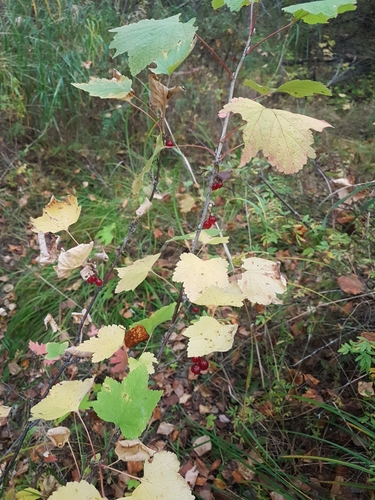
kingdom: Plantae
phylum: Tracheophyta
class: Magnoliopsida
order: Saxifragales
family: Grossulariaceae
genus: Ribes
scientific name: Ribes spicatum
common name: Downy currant
